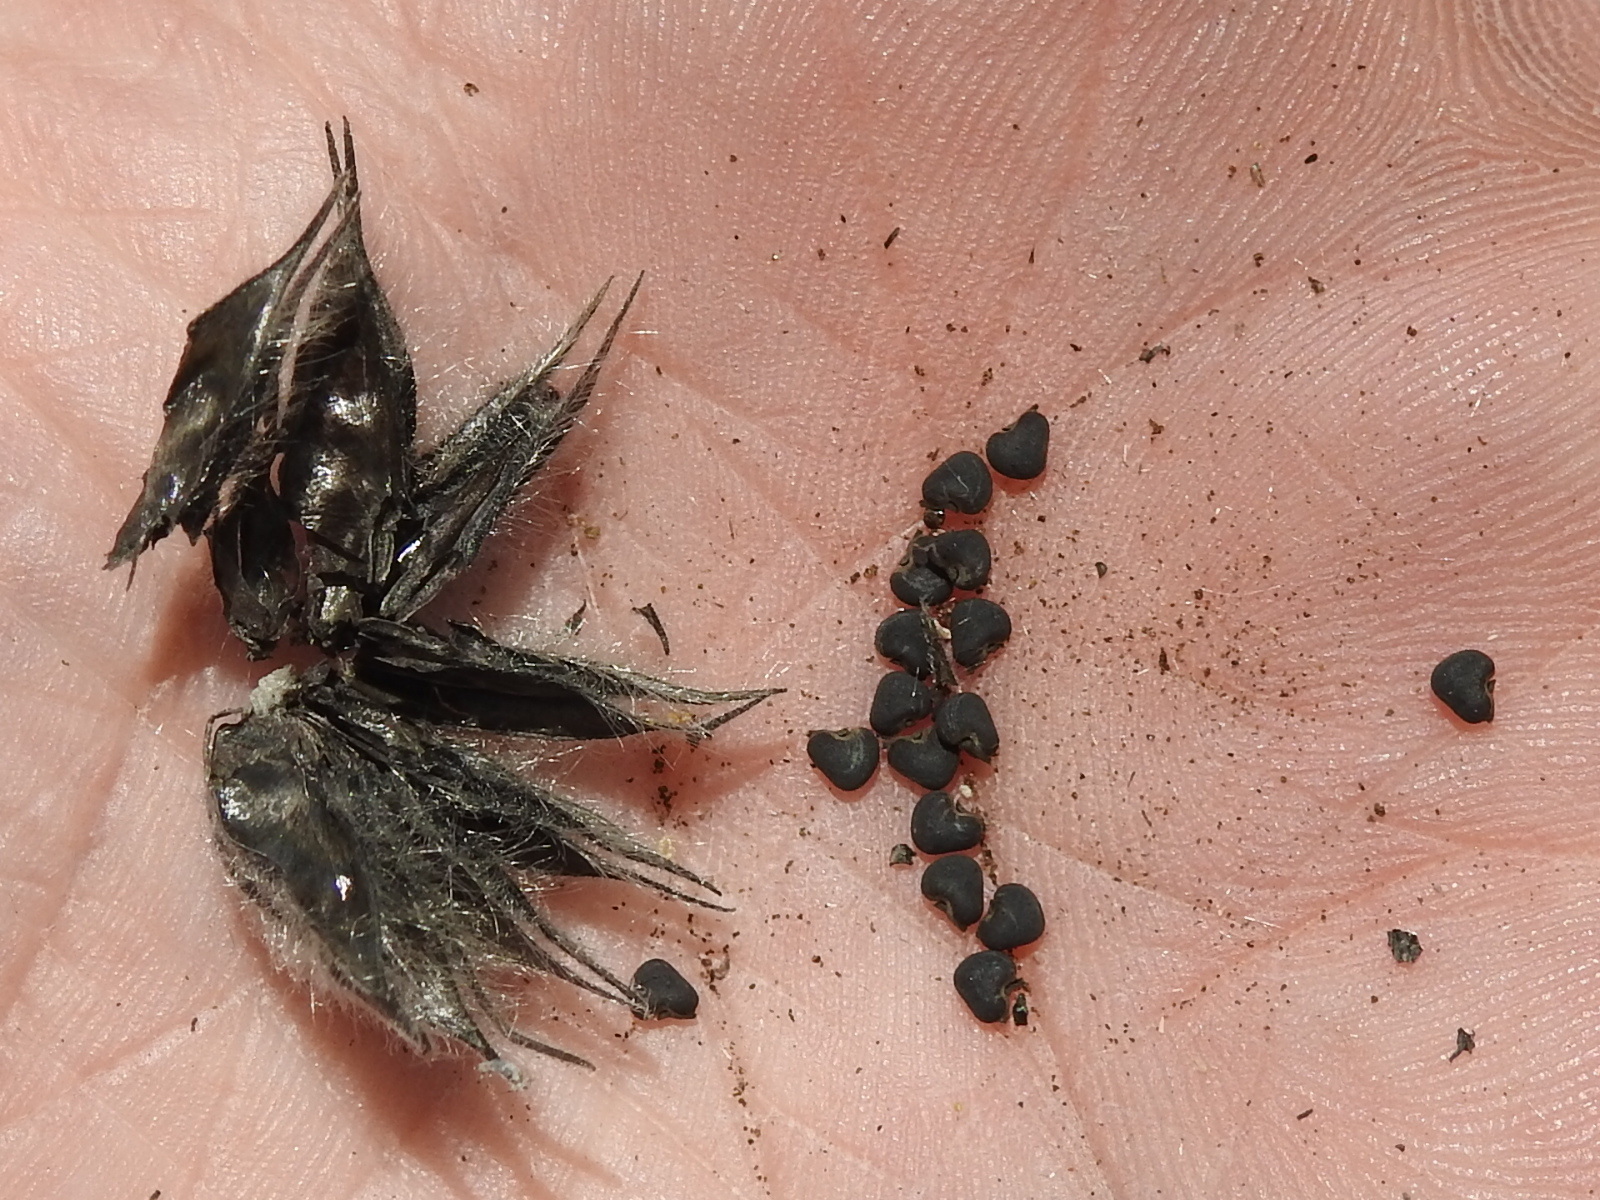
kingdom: Plantae
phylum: Tracheophyta
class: Magnoliopsida
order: Malvales
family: Malvaceae
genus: Abutilon
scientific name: Abutilon hypoleucum
